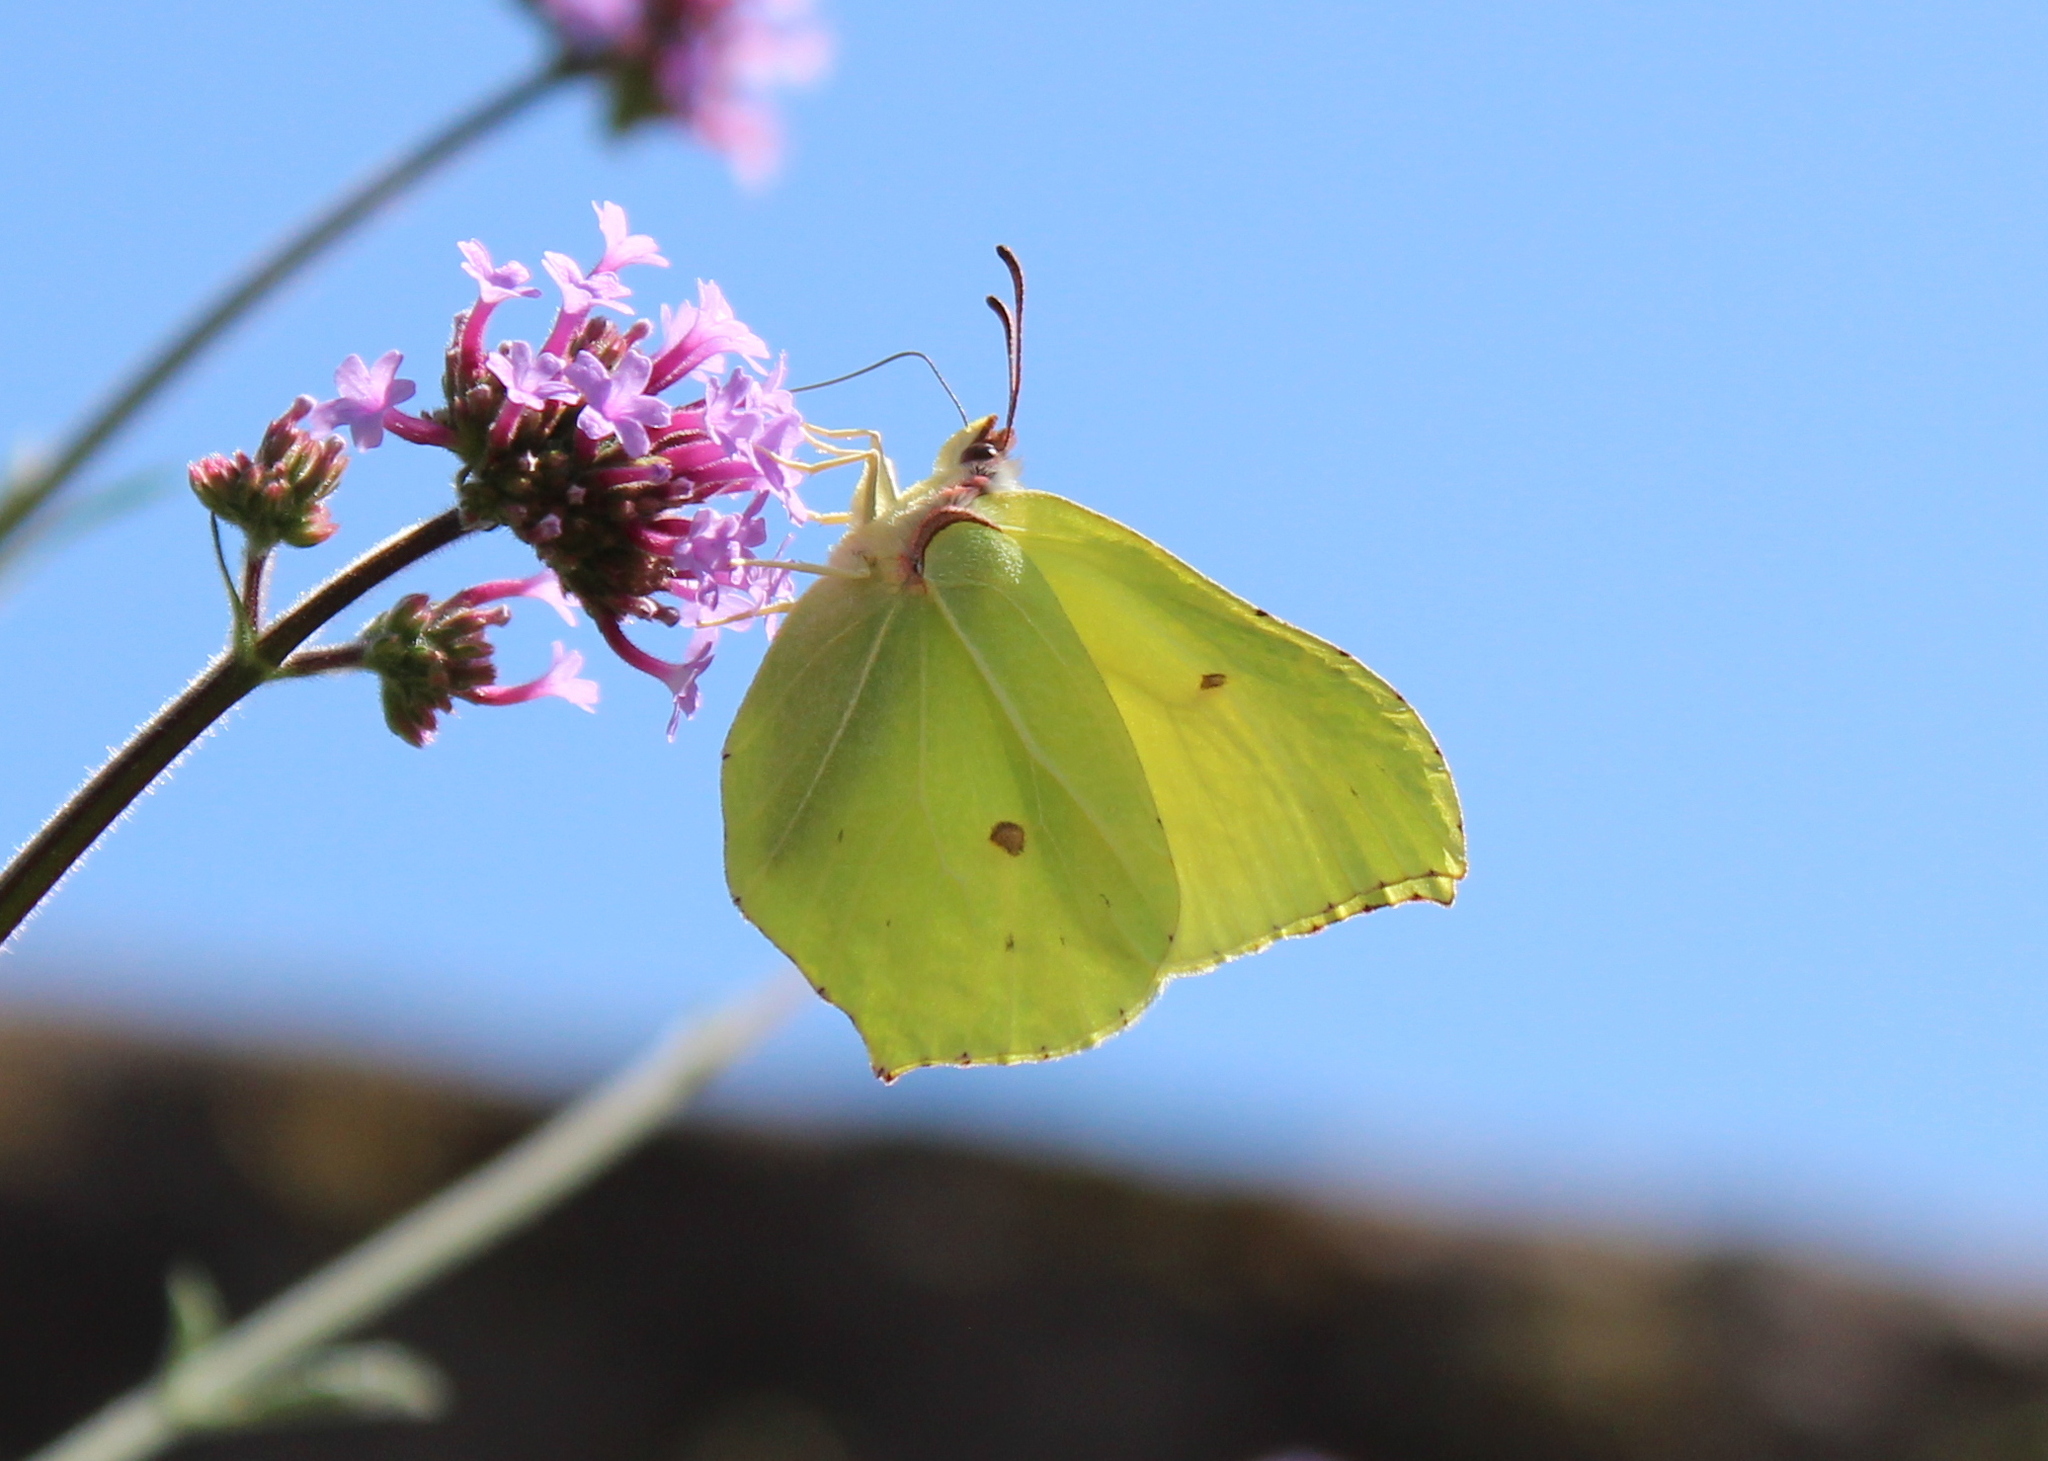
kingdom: Animalia
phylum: Arthropoda
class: Insecta
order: Lepidoptera
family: Pieridae
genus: Gonepteryx
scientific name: Gonepteryx rhamni
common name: Brimstone
